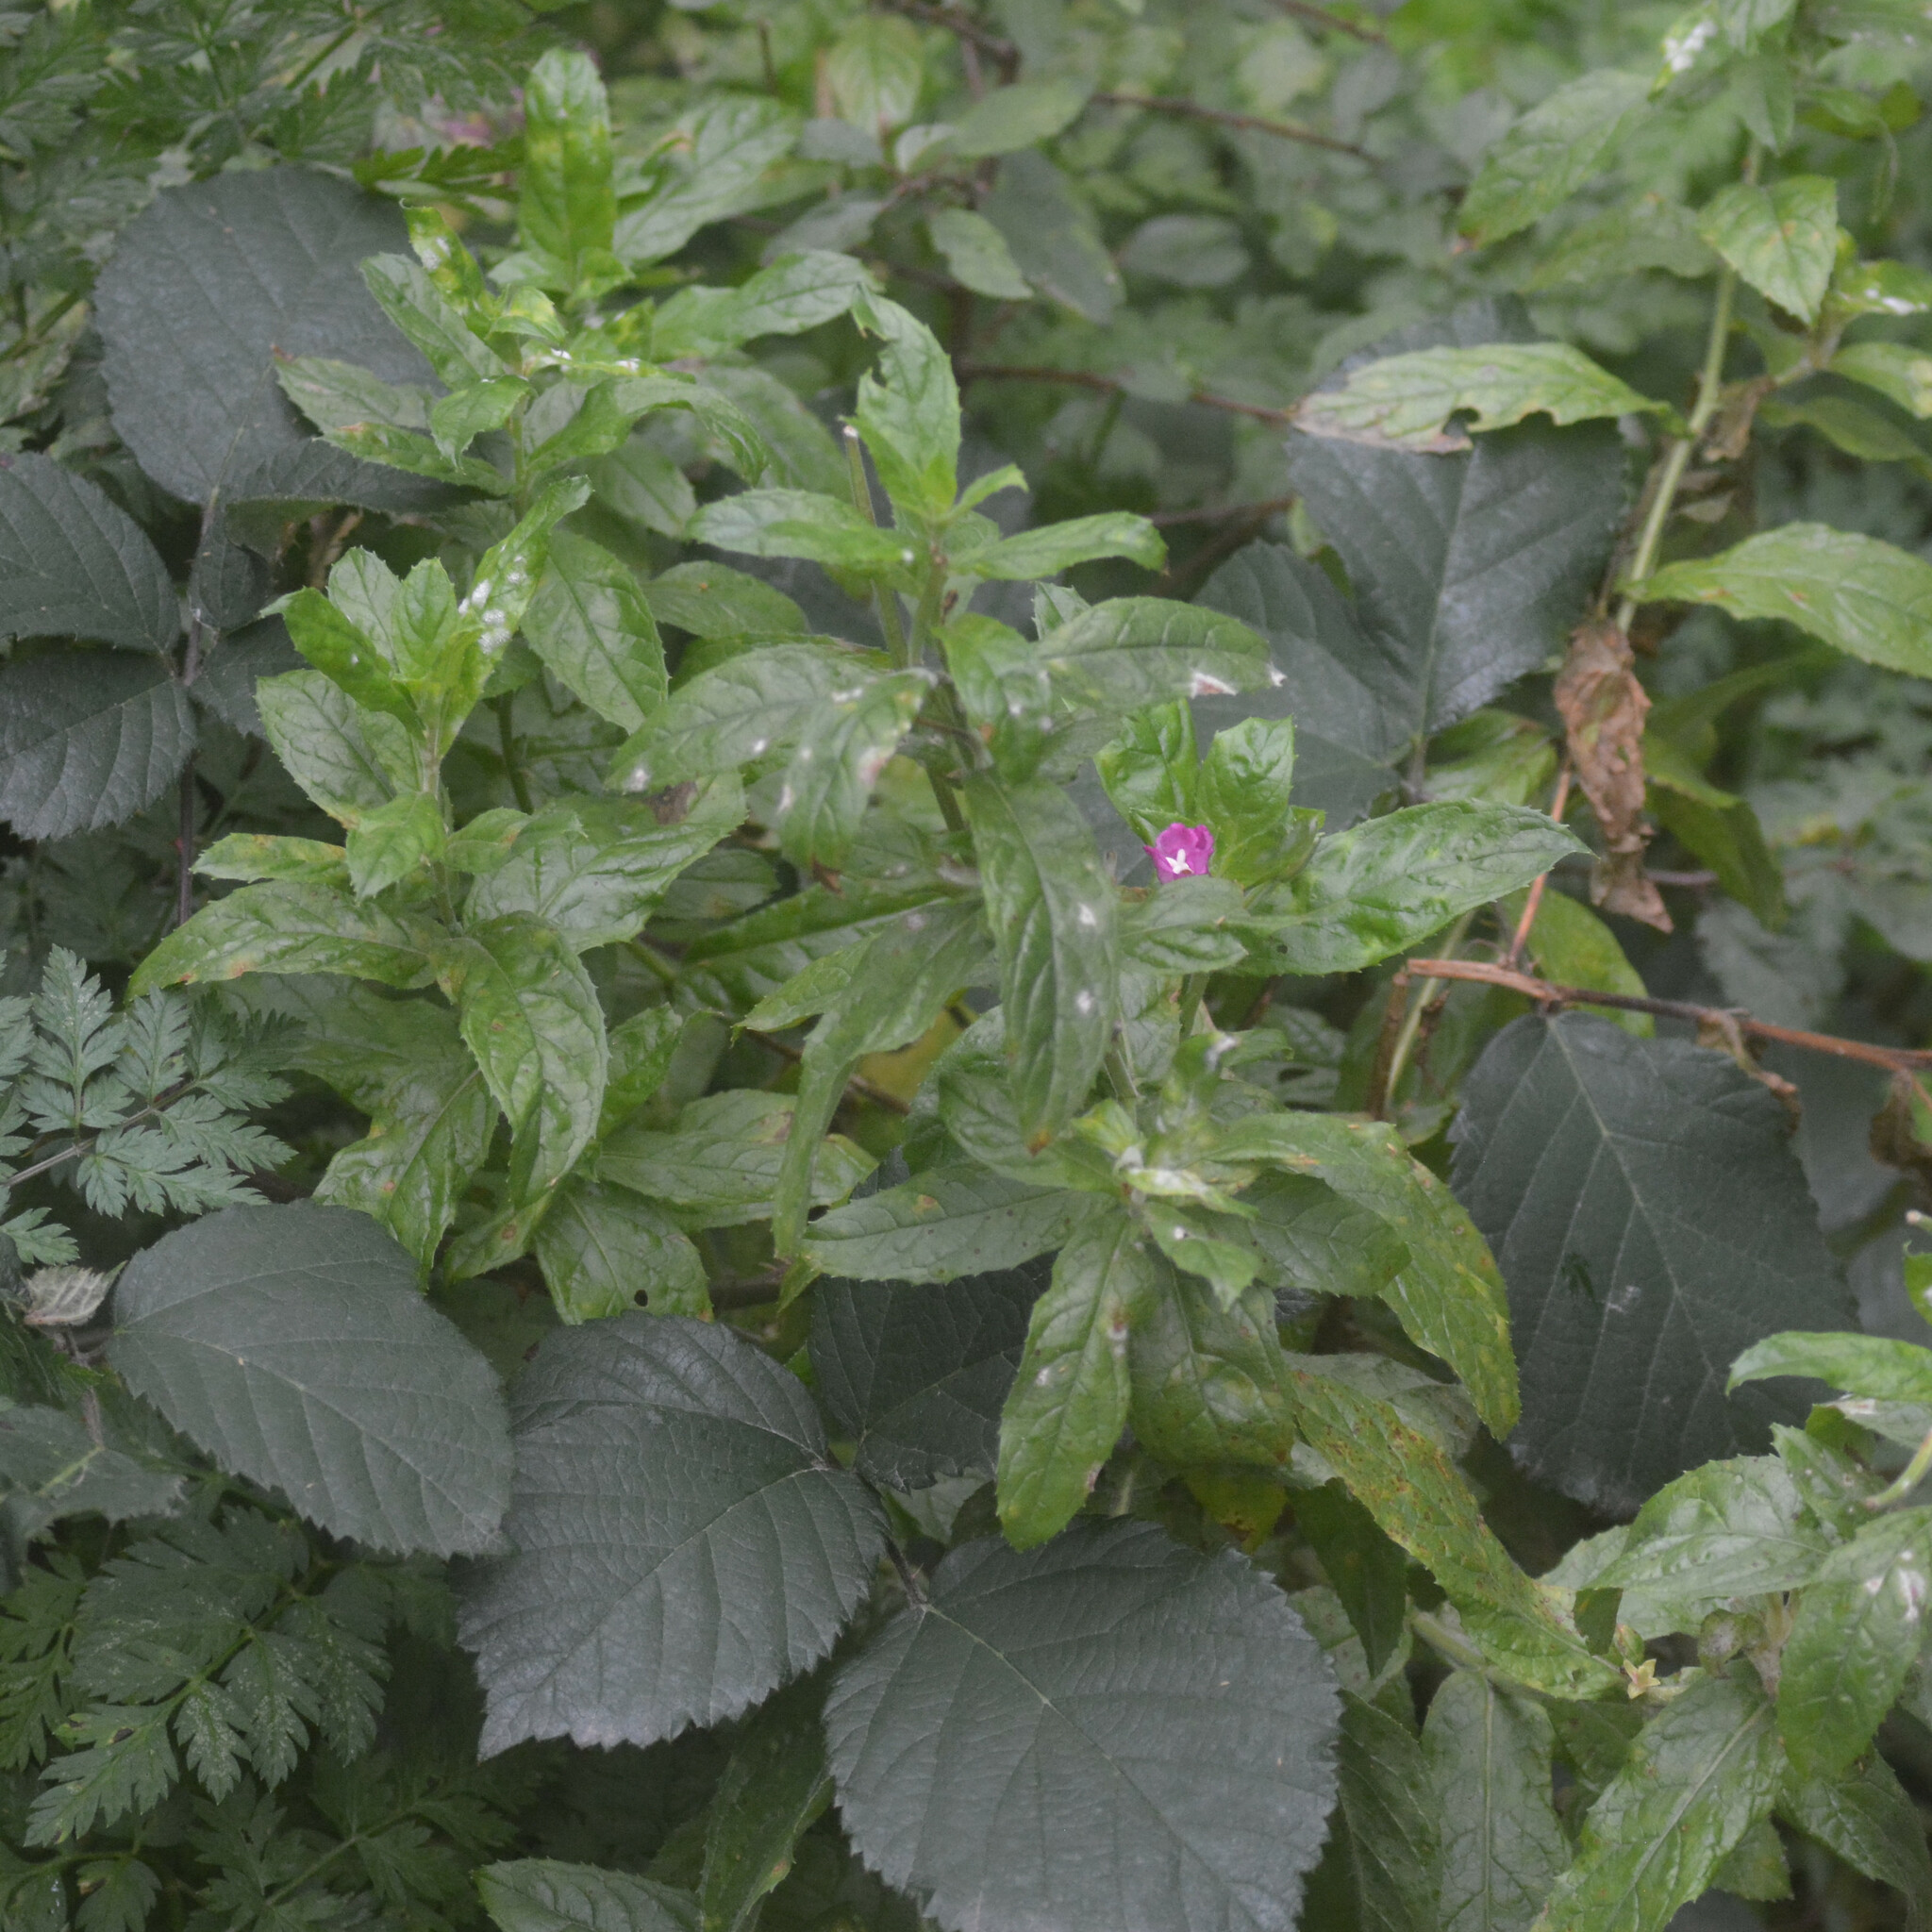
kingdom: Plantae
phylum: Tracheophyta
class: Magnoliopsida
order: Myrtales
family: Onagraceae
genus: Epilobium
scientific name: Epilobium hirsutum
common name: Great willowherb
